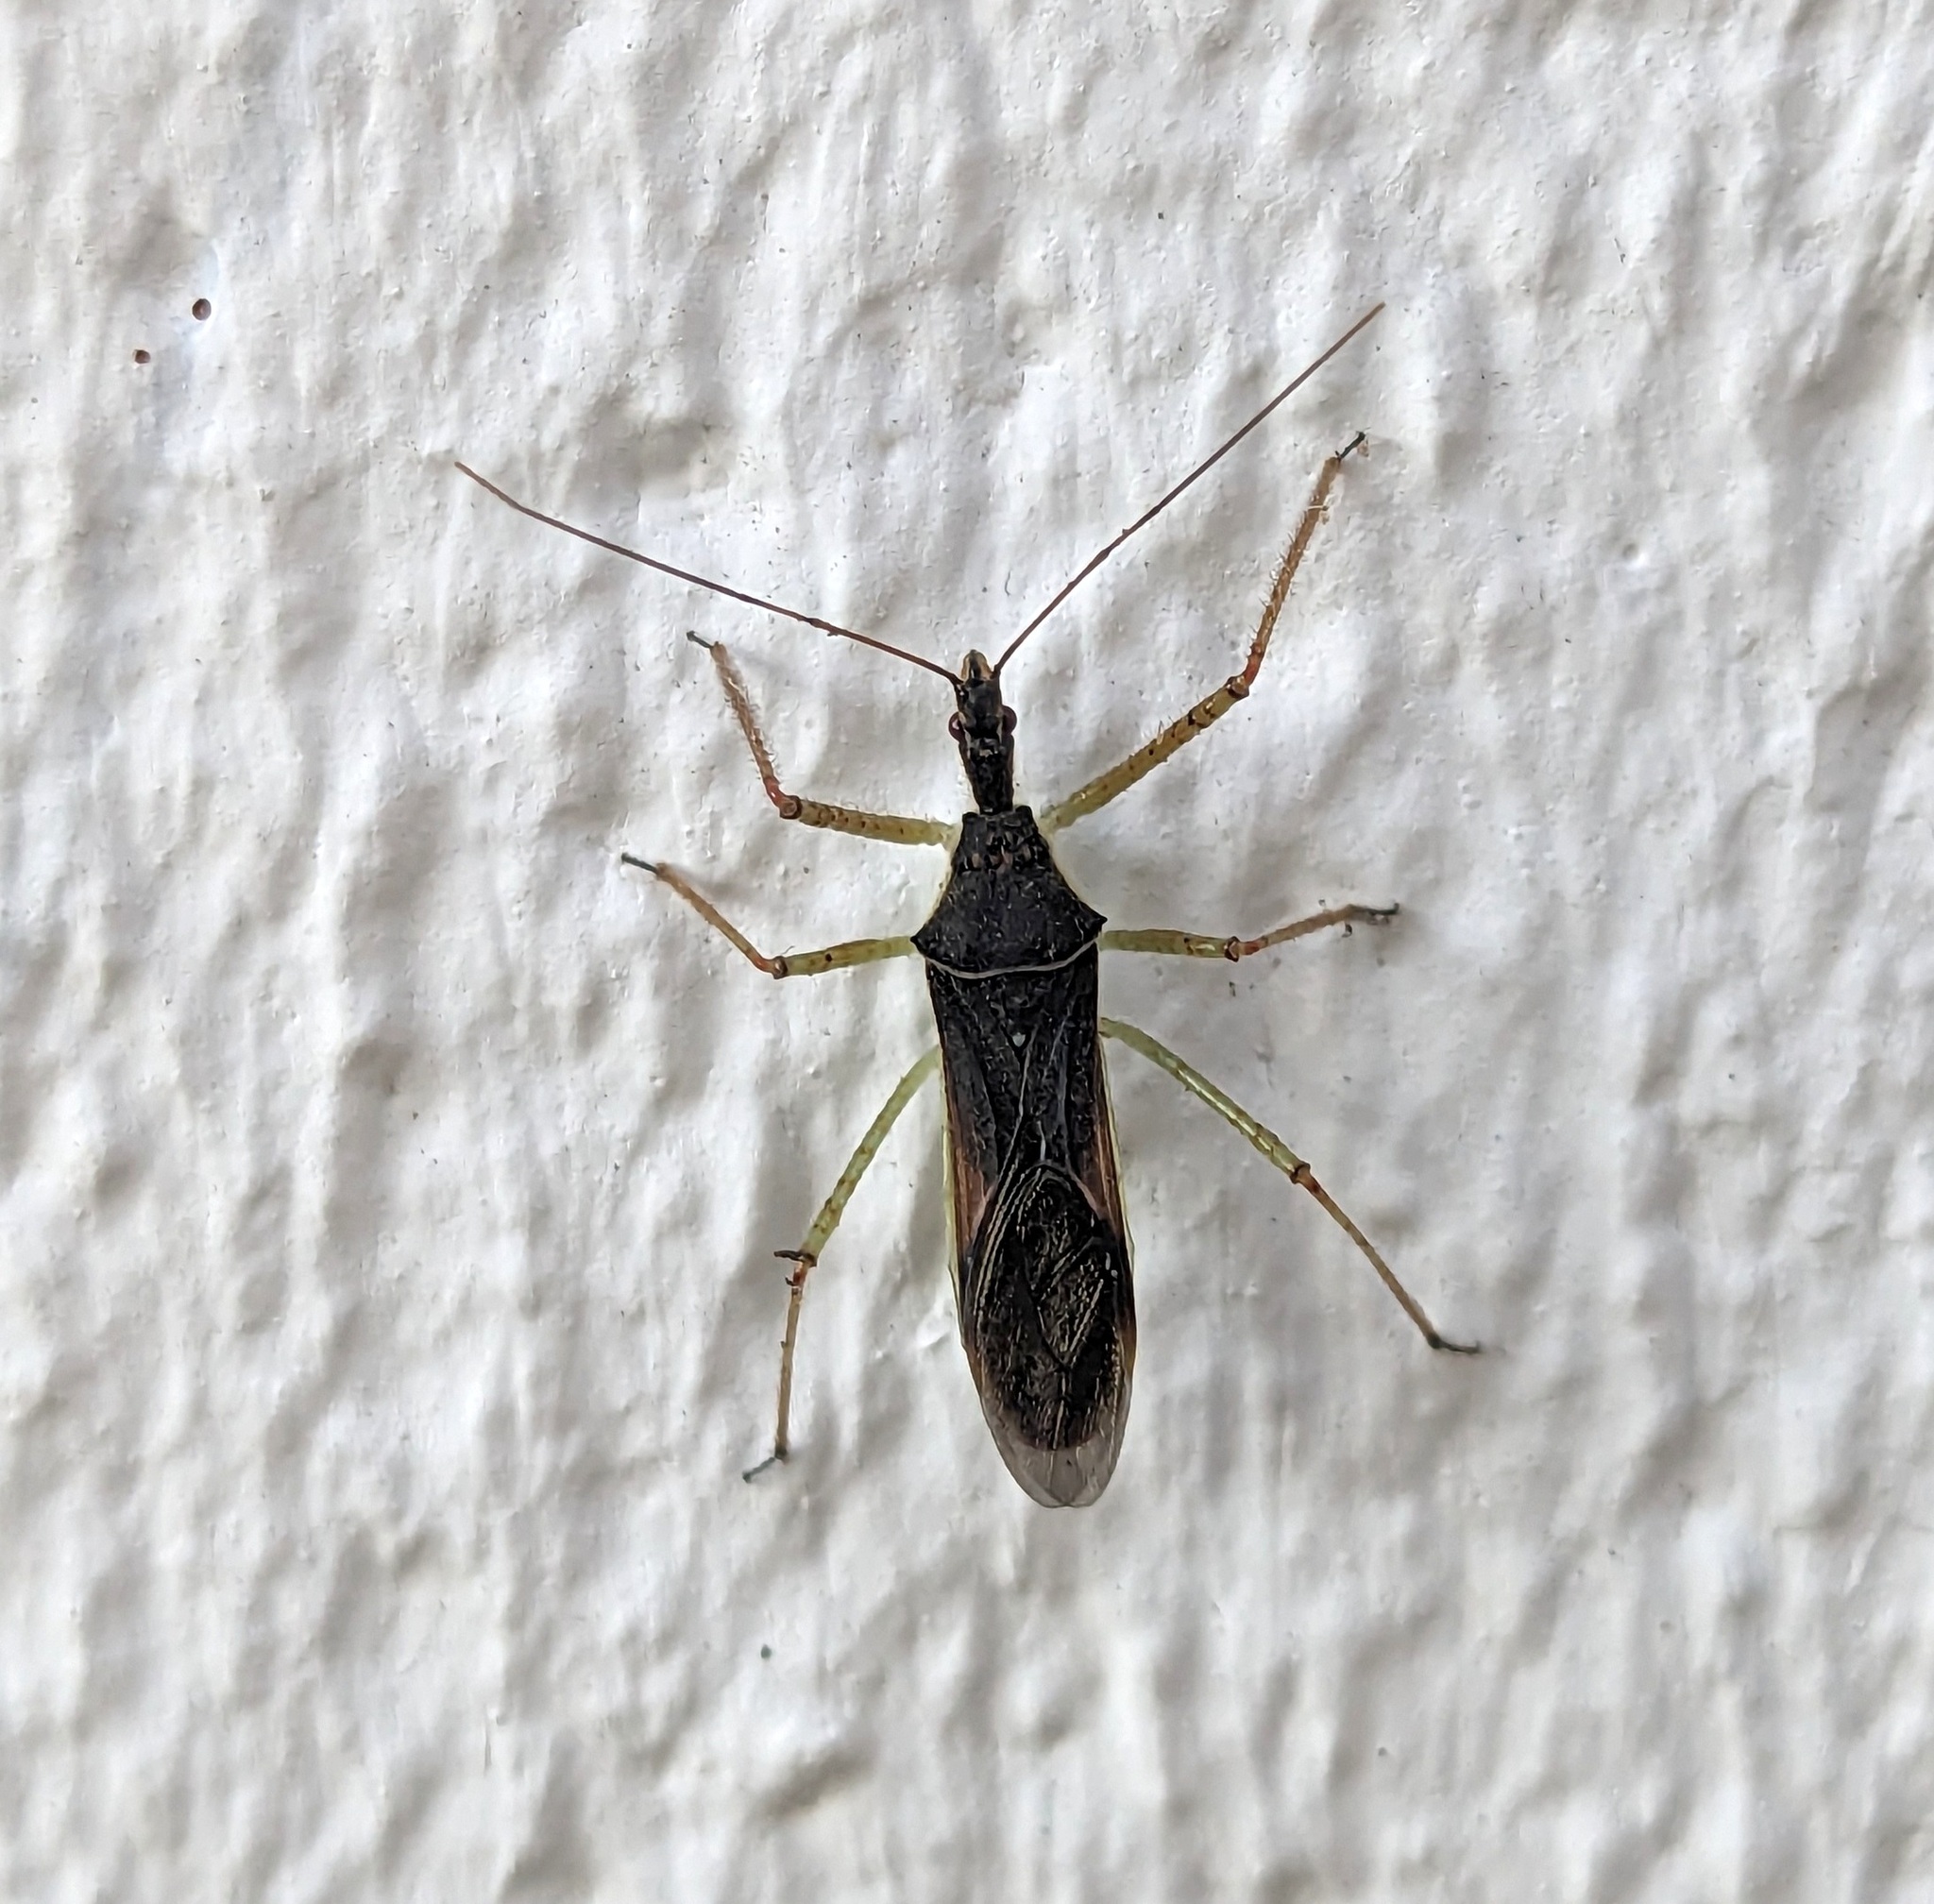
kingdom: Animalia
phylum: Arthropoda
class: Insecta
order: Hemiptera
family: Reduviidae
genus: Zelus
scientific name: Zelus renardii
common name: Assassin bug
